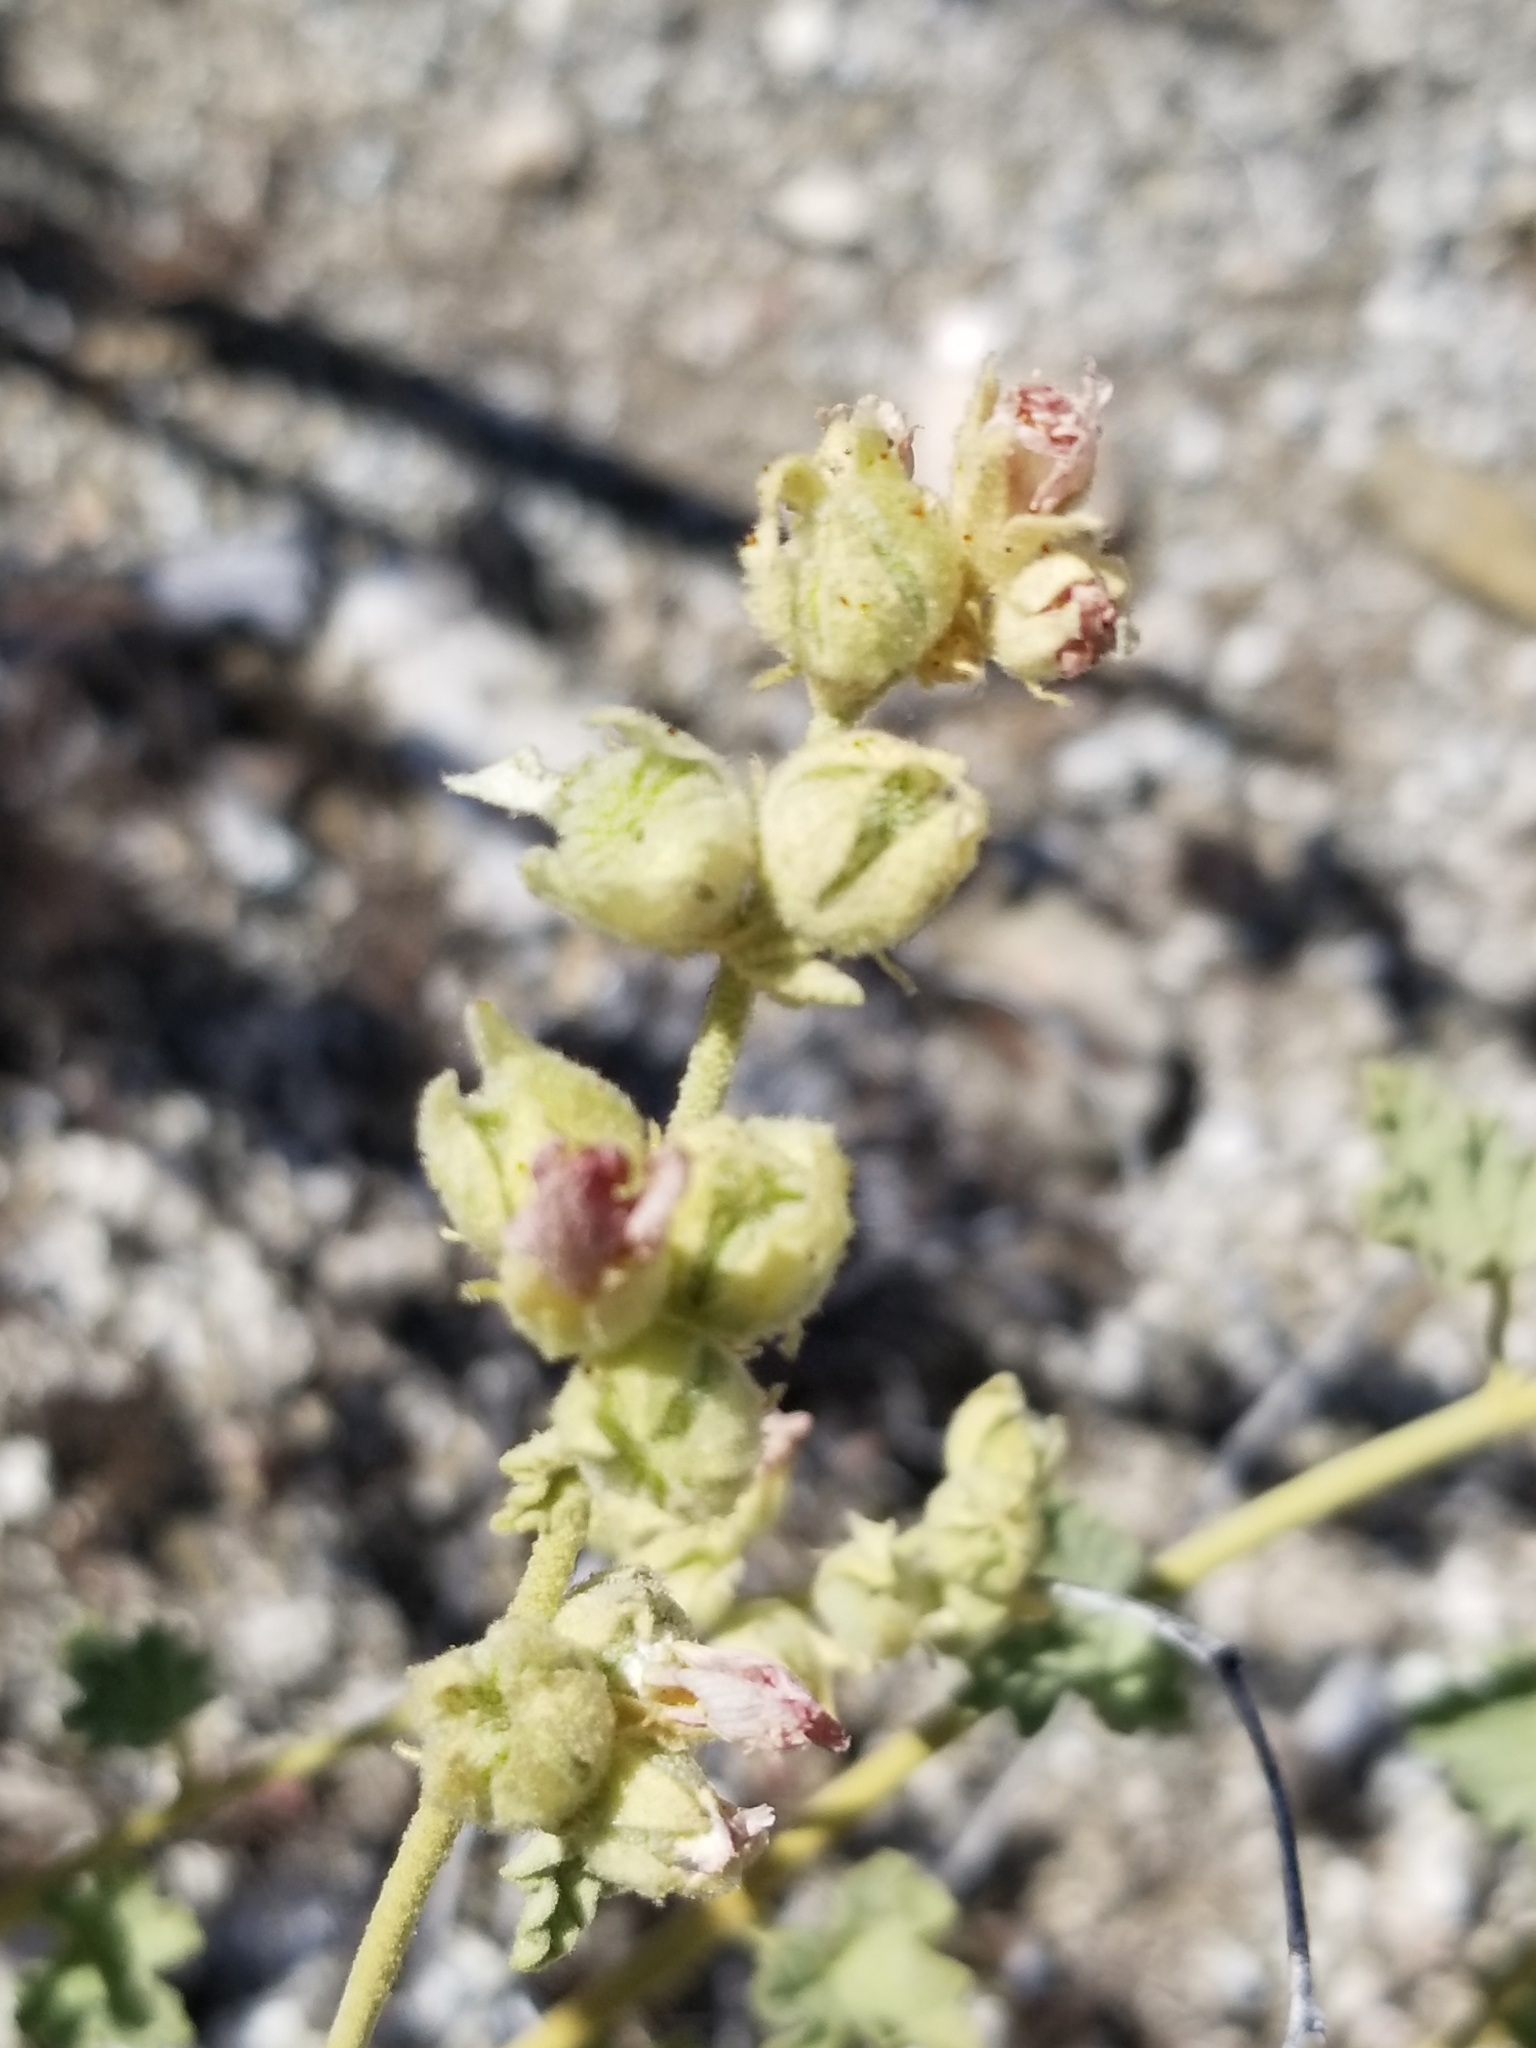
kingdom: Plantae
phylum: Tracheophyta
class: Magnoliopsida
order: Malvales
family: Malvaceae
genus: Sphaeralcea
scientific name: Sphaeralcea ambigua
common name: Apricot globe-mallow
